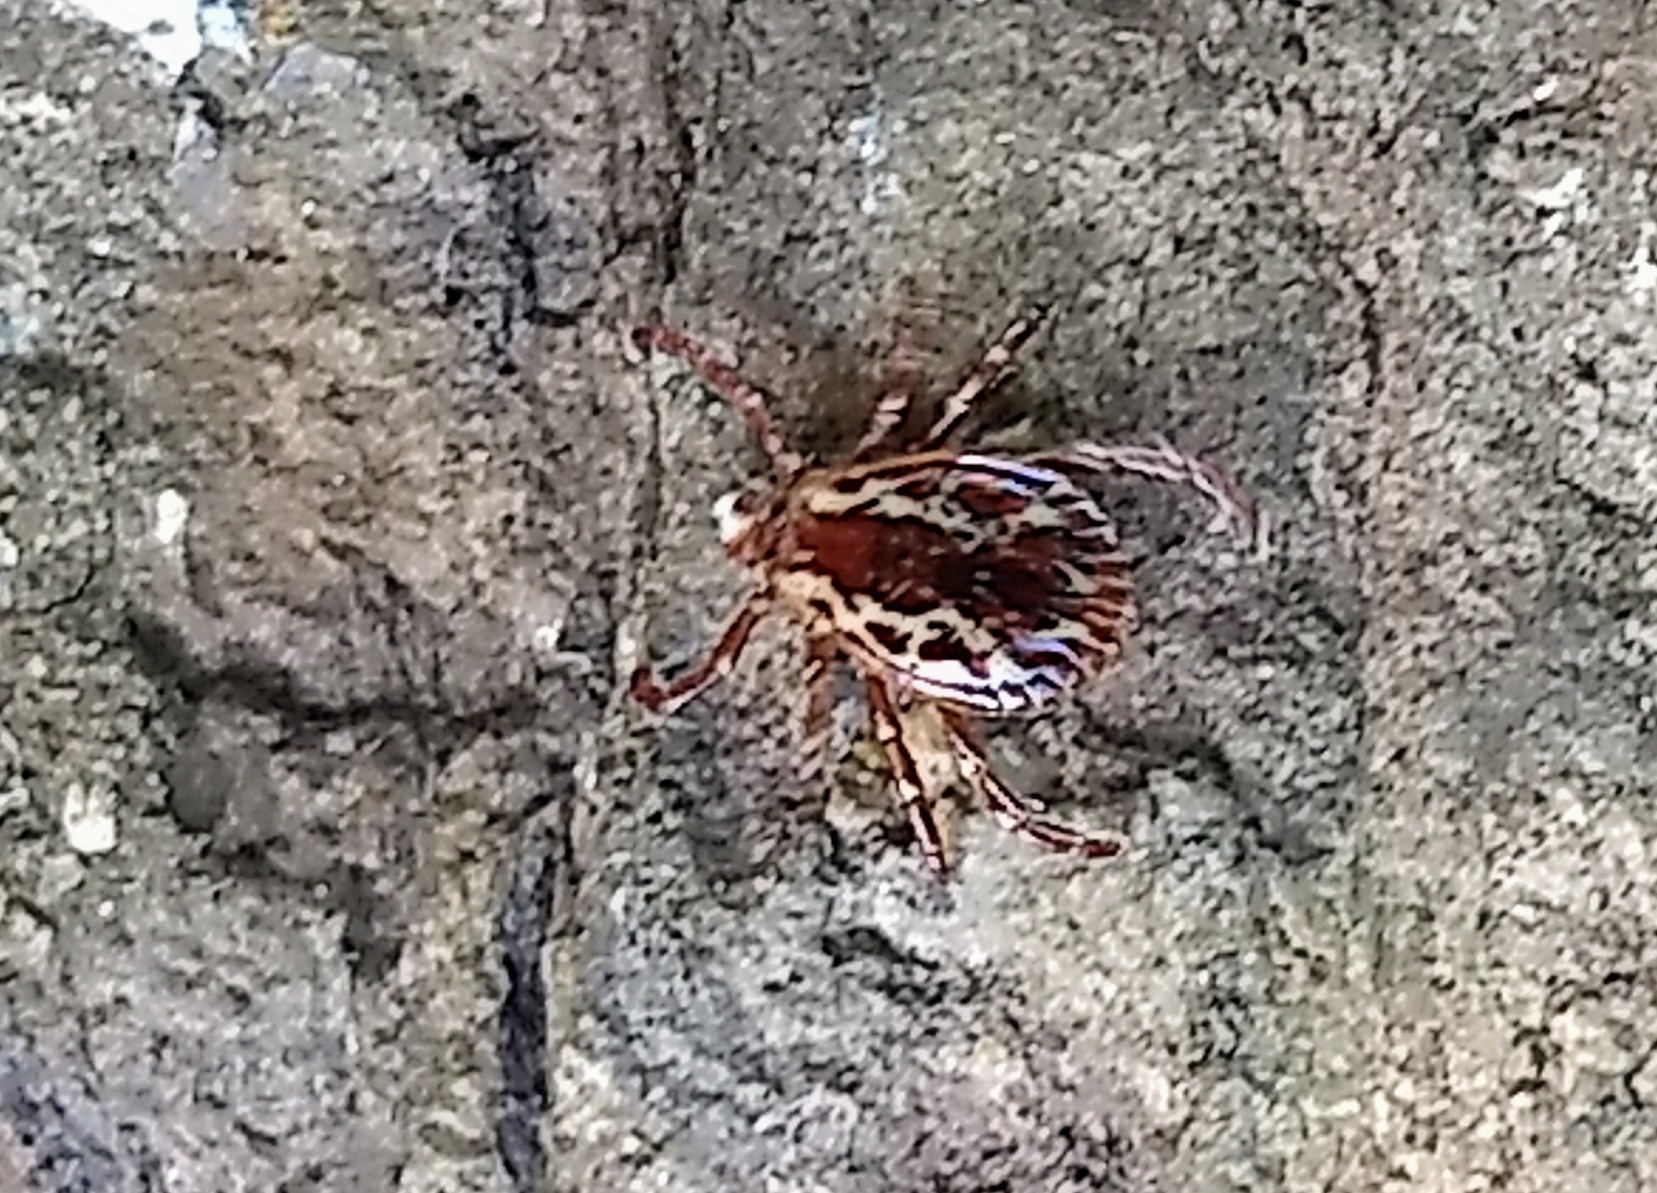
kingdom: Animalia
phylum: Arthropoda
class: Arachnida
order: Ixodida
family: Ixodidae
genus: Dermacentor
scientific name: Dermacentor variabilis
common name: American dog tick
